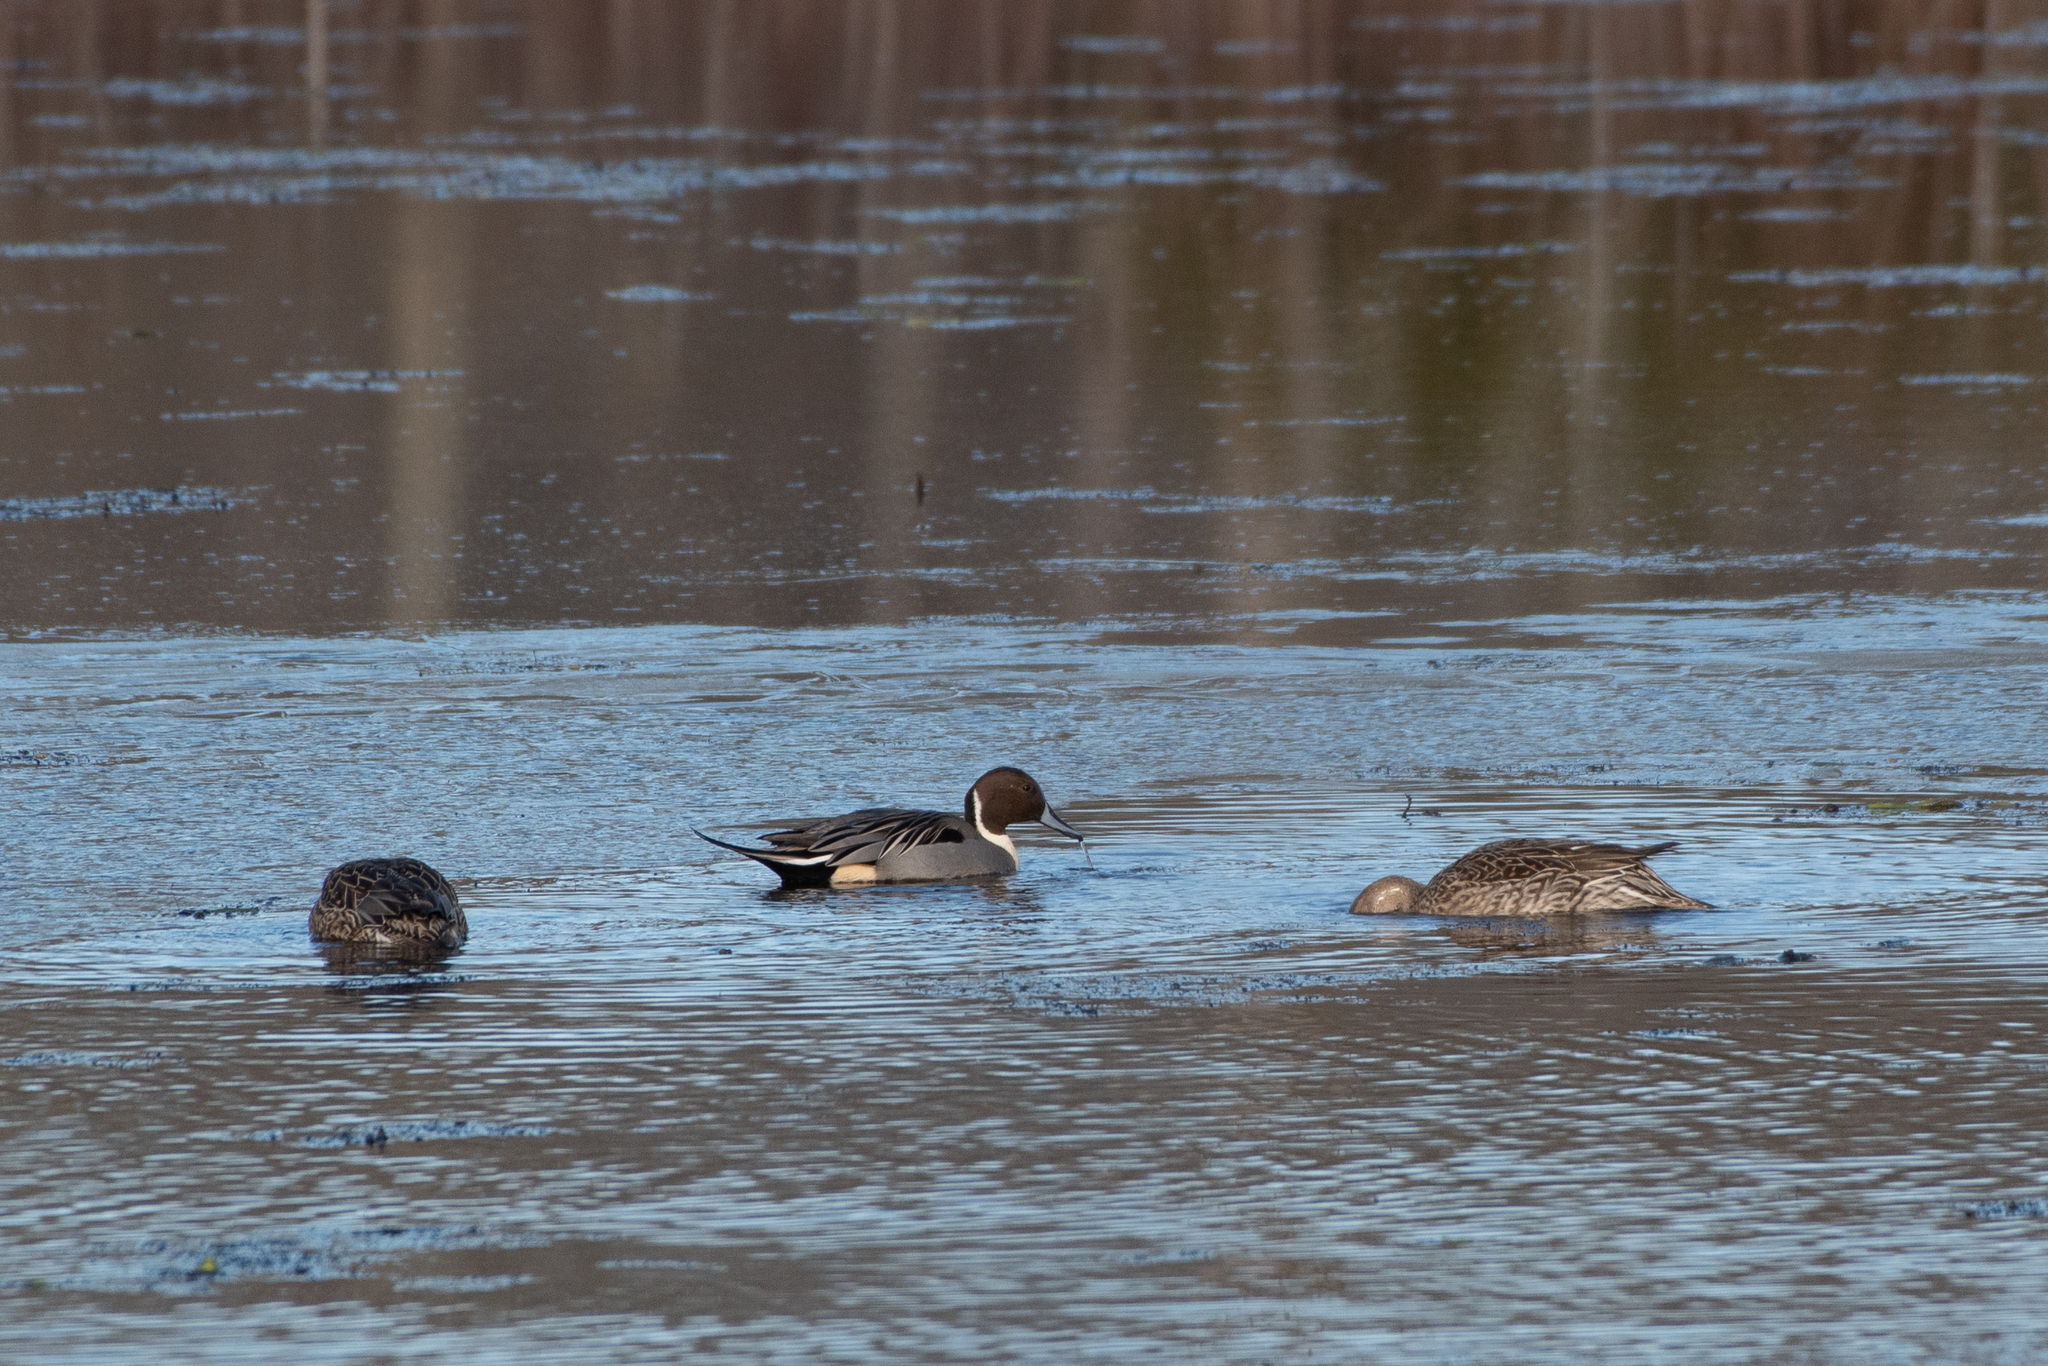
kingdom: Animalia
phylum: Chordata
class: Aves
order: Anseriformes
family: Anatidae
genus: Anas
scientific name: Anas acuta
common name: Northern pintail
